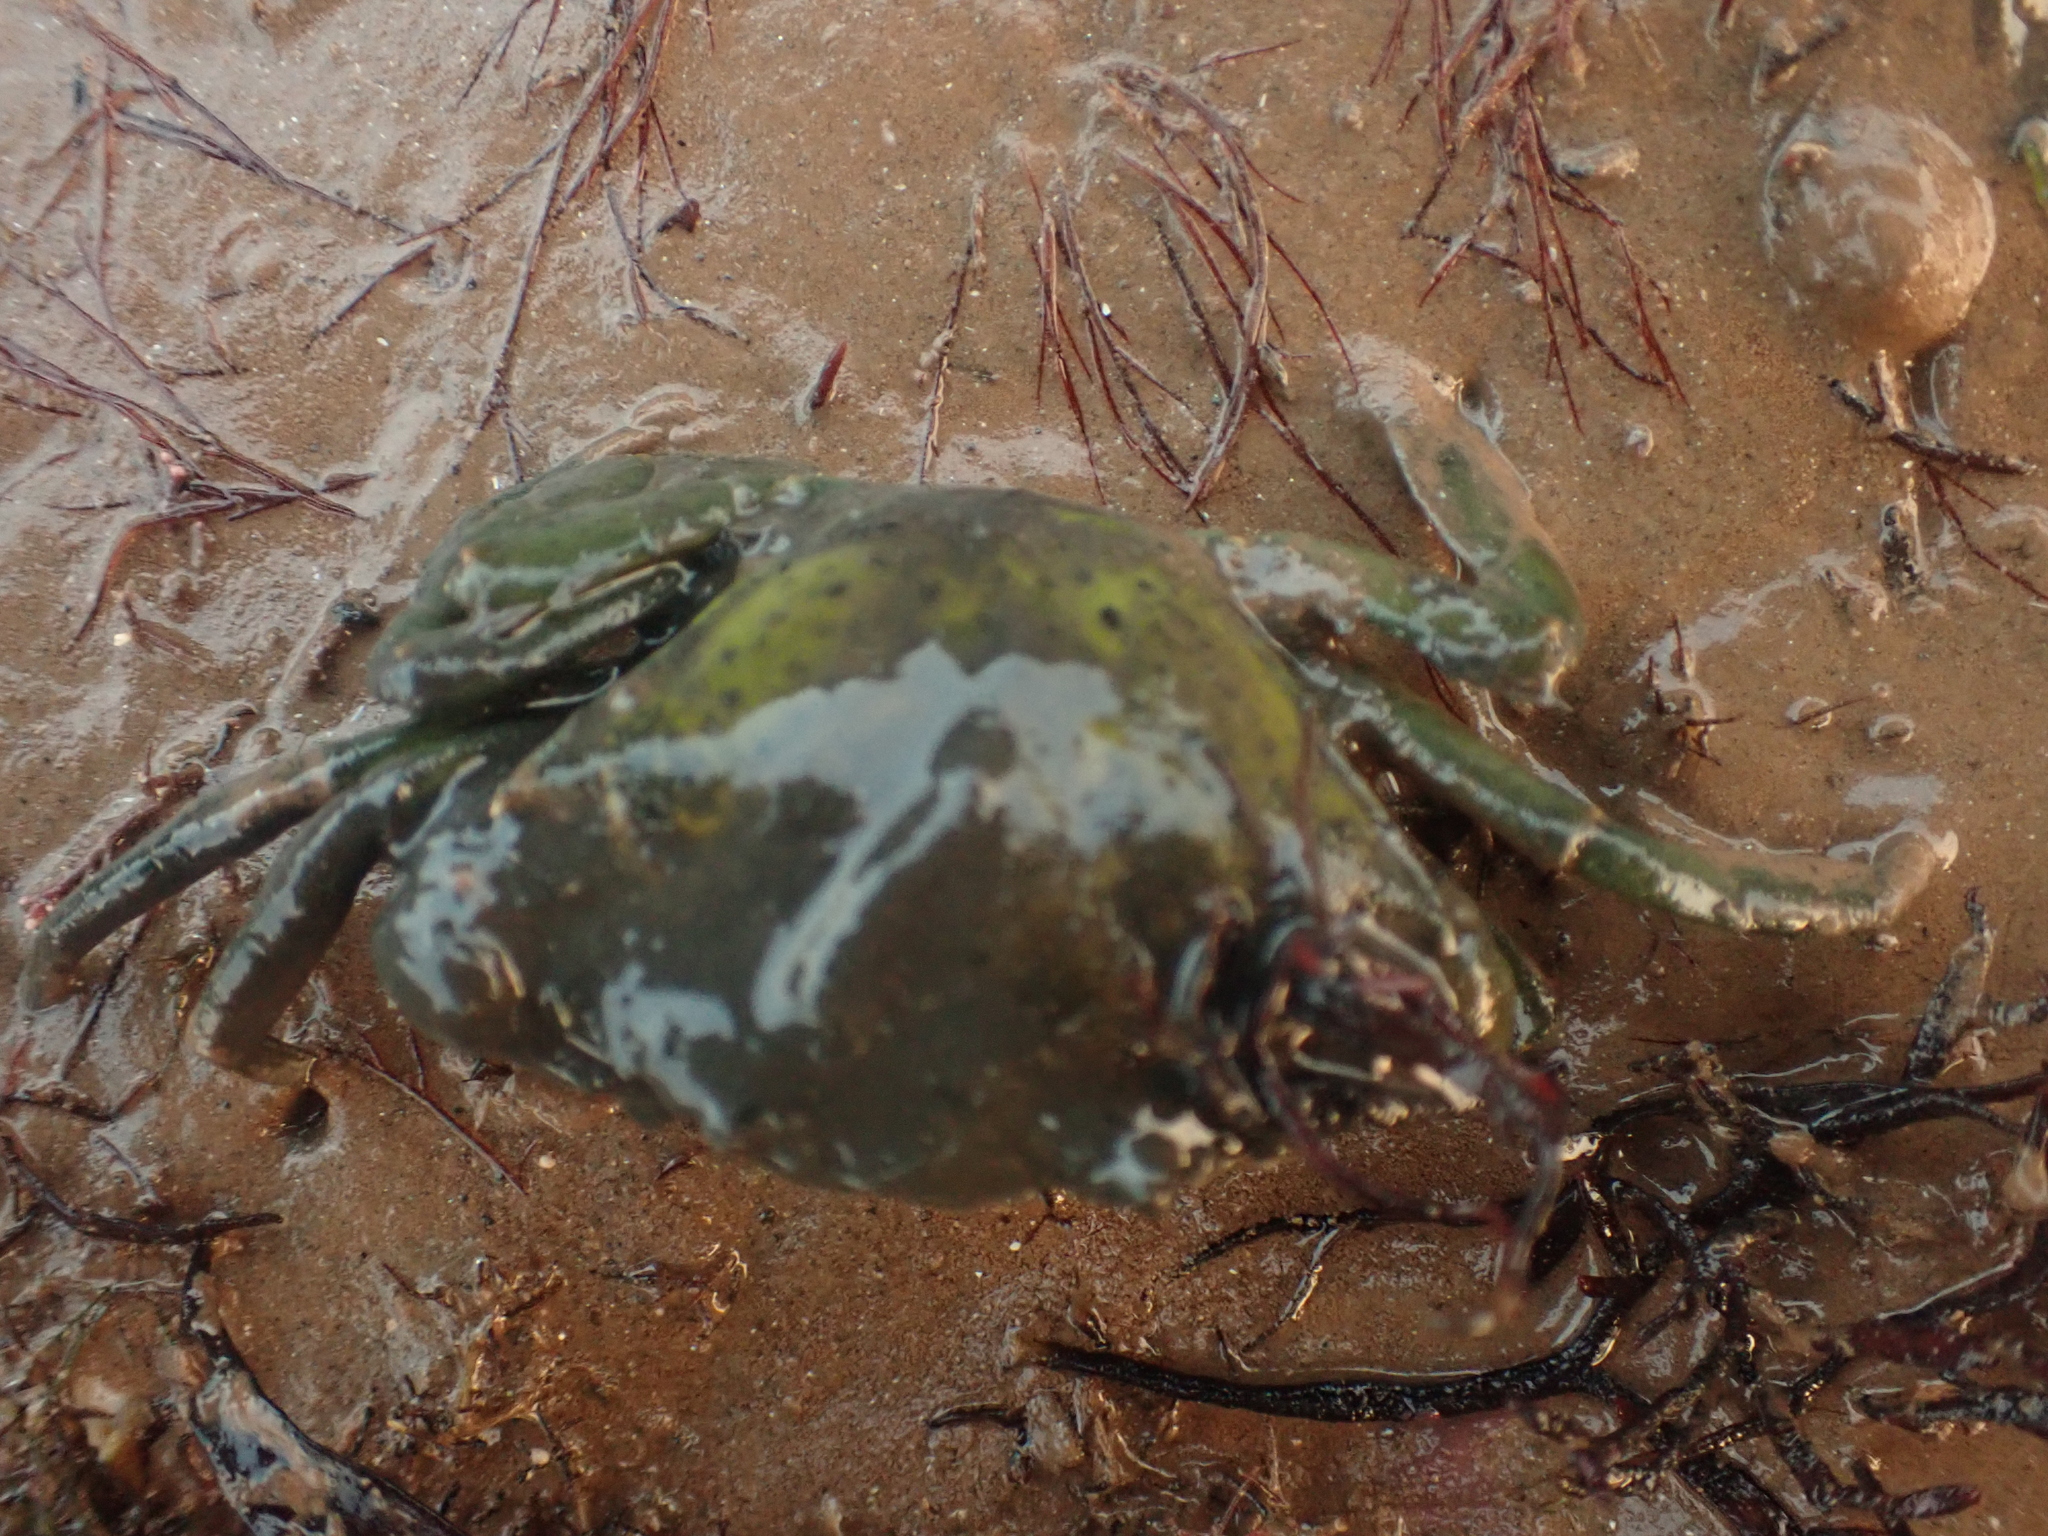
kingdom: Animalia
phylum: Arthropoda
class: Malacostraca
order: Decapoda
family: Carcinidae
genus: Carcinus
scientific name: Carcinus maenas
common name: European green crab
